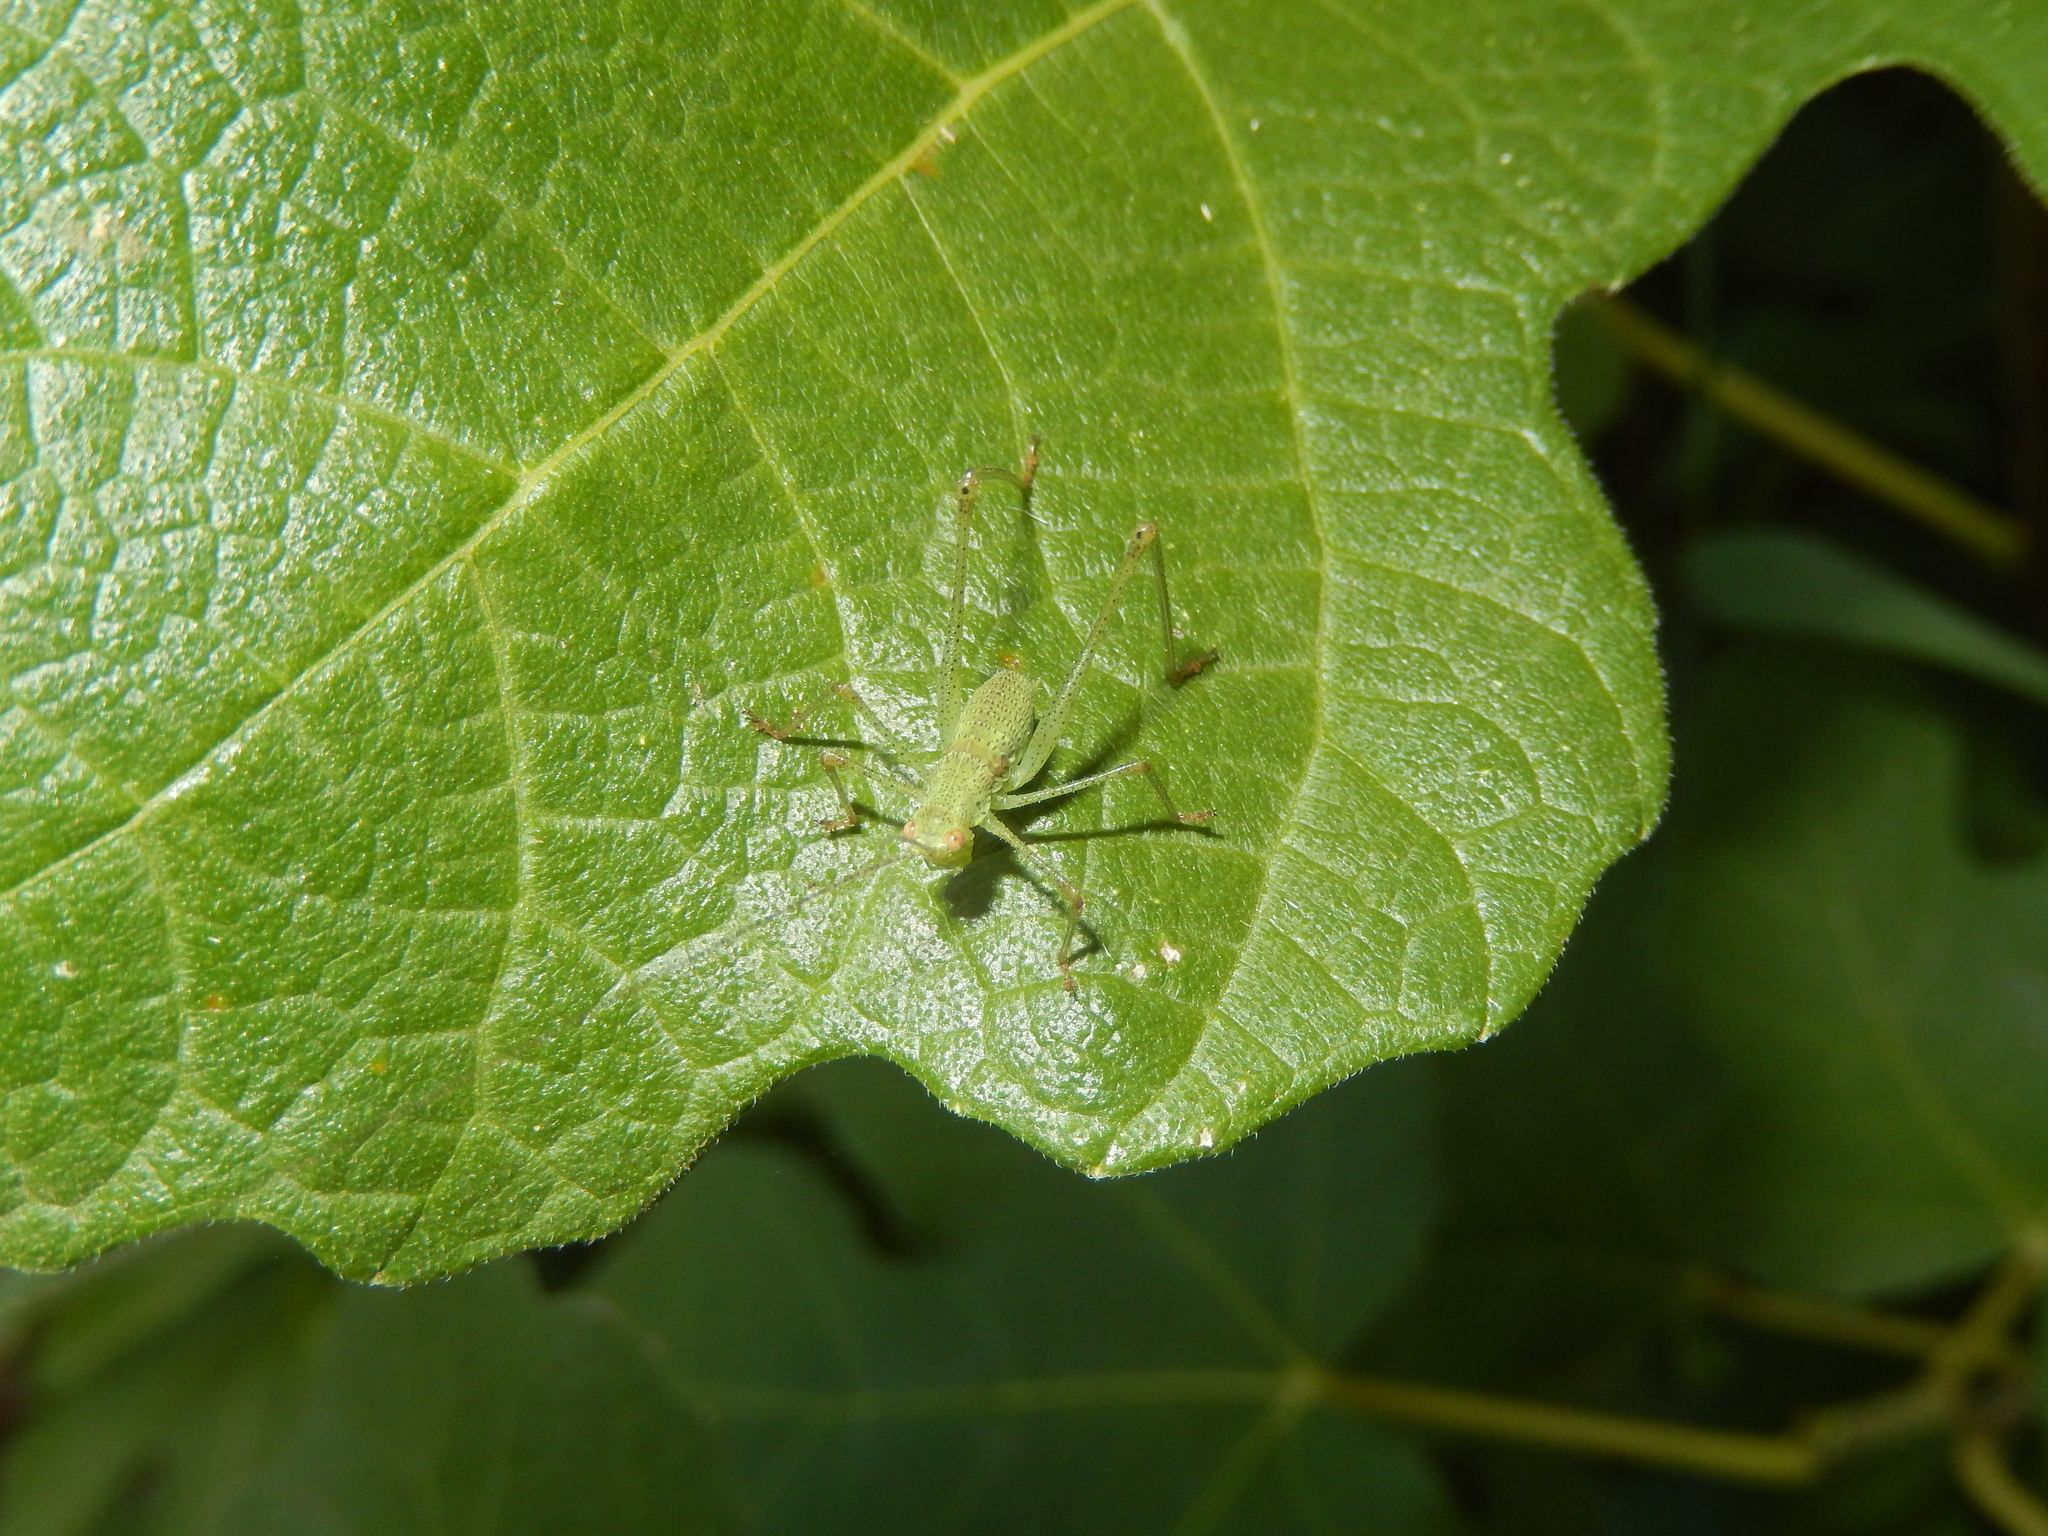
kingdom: Animalia
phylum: Arthropoda
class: Insecta
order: Orthoptera
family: Tettigoniidae
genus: Phaneroptera
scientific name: Phaneroptera nana
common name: Southern sickle bush-cricket
